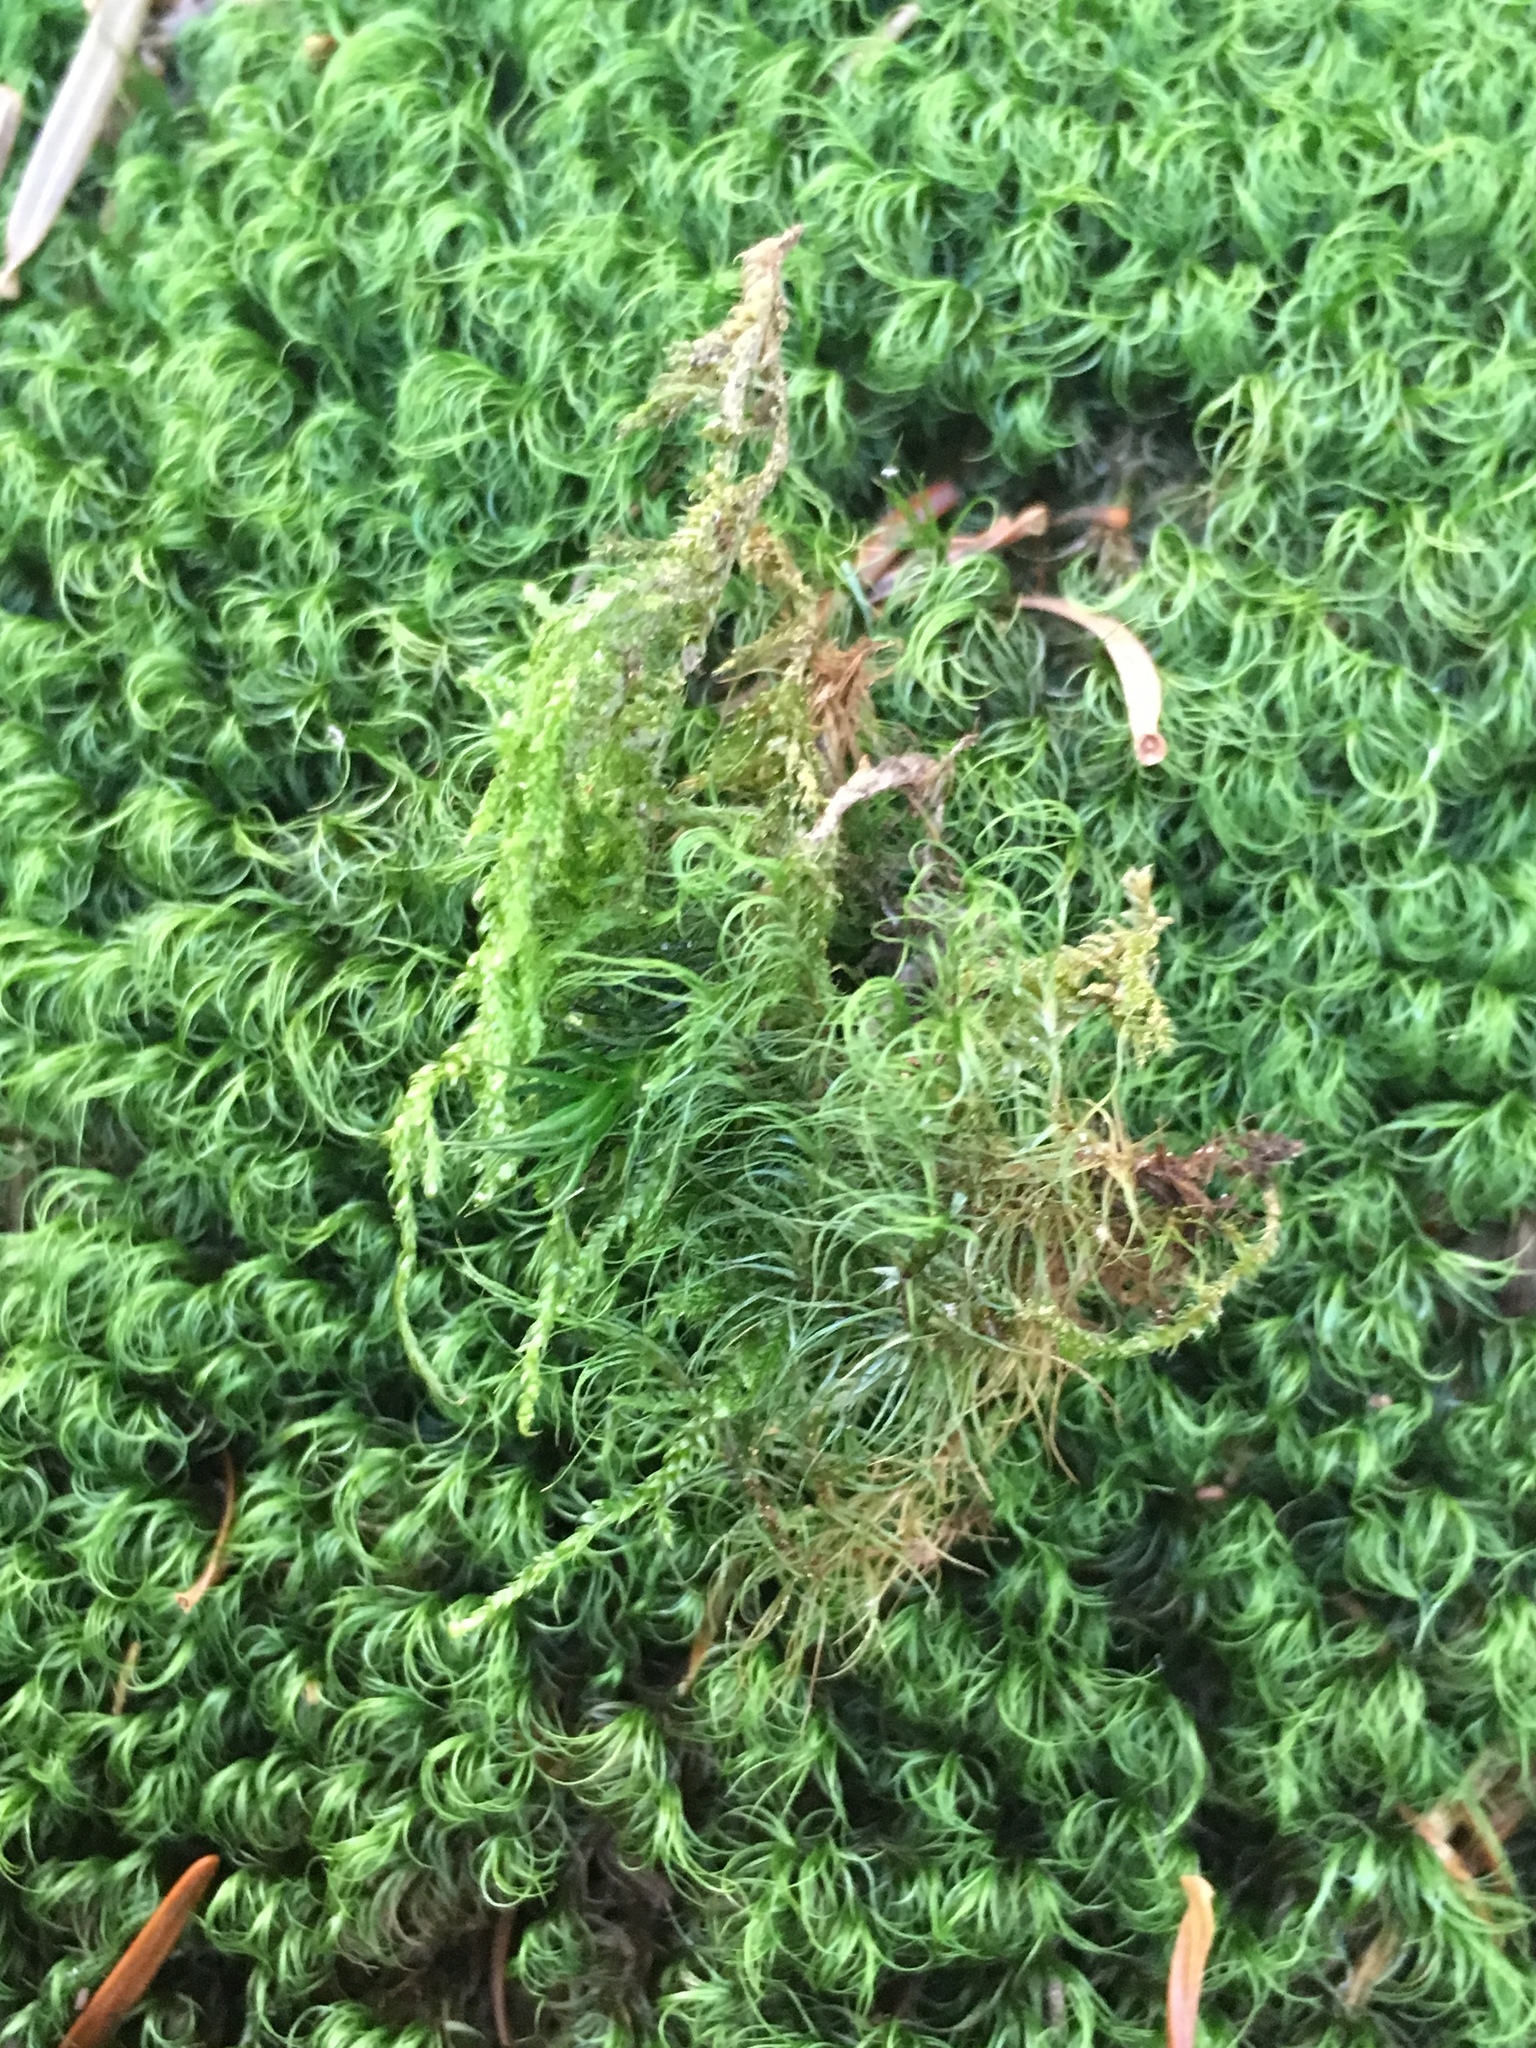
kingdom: Plantae
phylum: Bryophyta
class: Bryopsida
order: Dicranales
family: Dicranaceae
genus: Paraleucobryum
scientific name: Paraleucobryum longifolium
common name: Long-leaved fork moss
